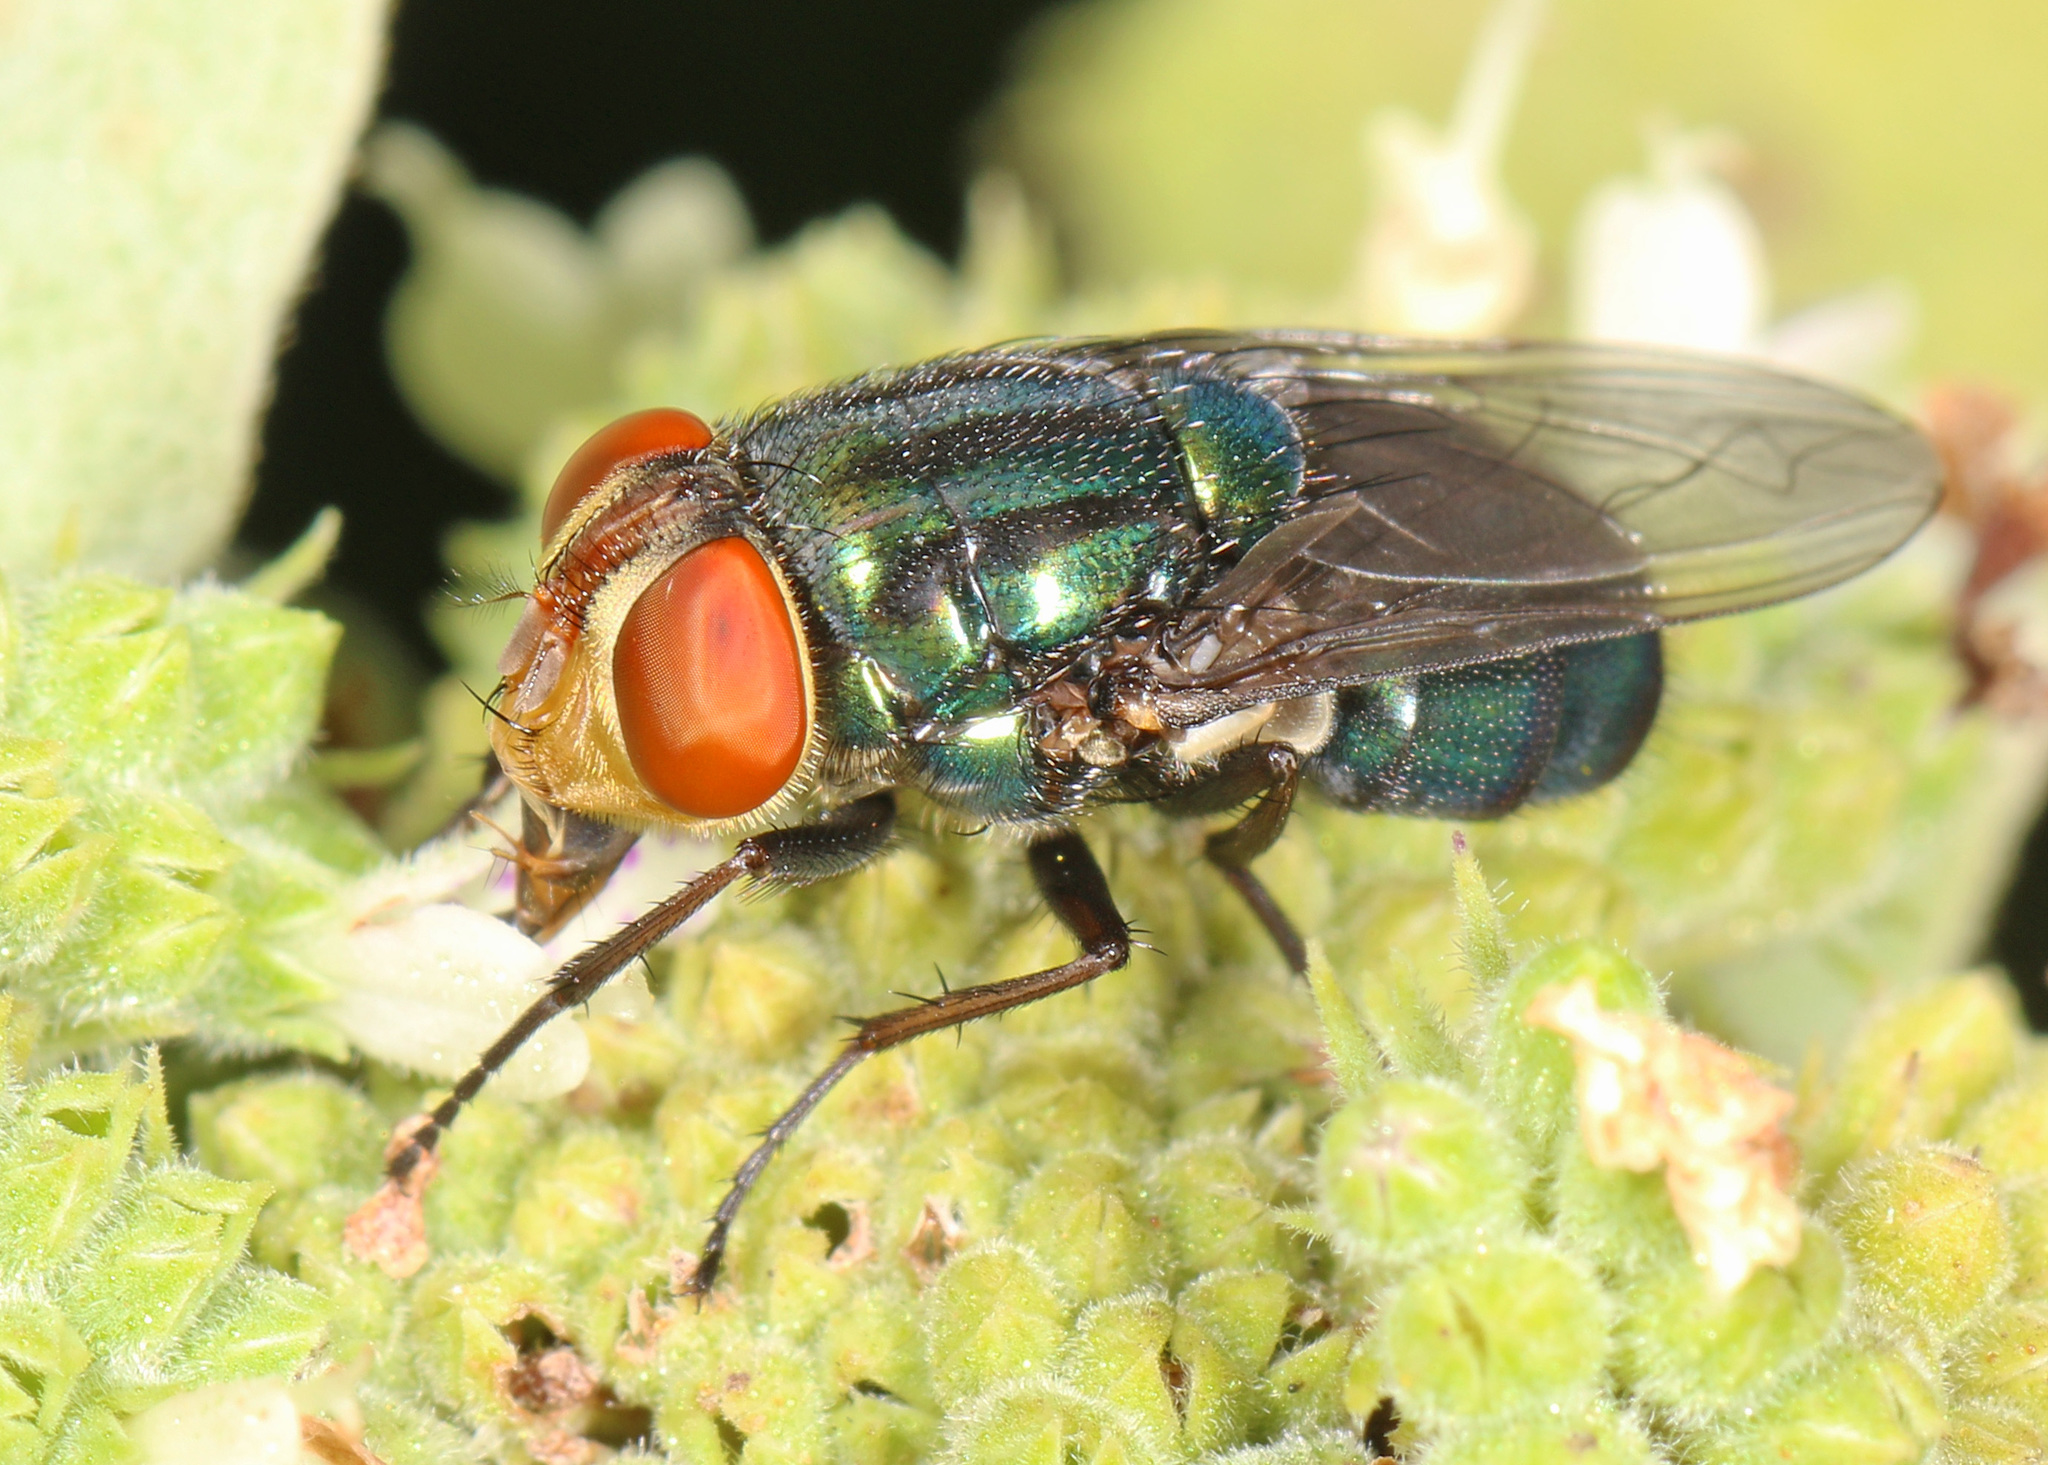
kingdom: Animalia
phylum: Arthropoda
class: Insecta
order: Diptera
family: Calliphoridae
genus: Cochliomyia
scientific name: Cochliomyia macellaria
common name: Secondary screwworm
